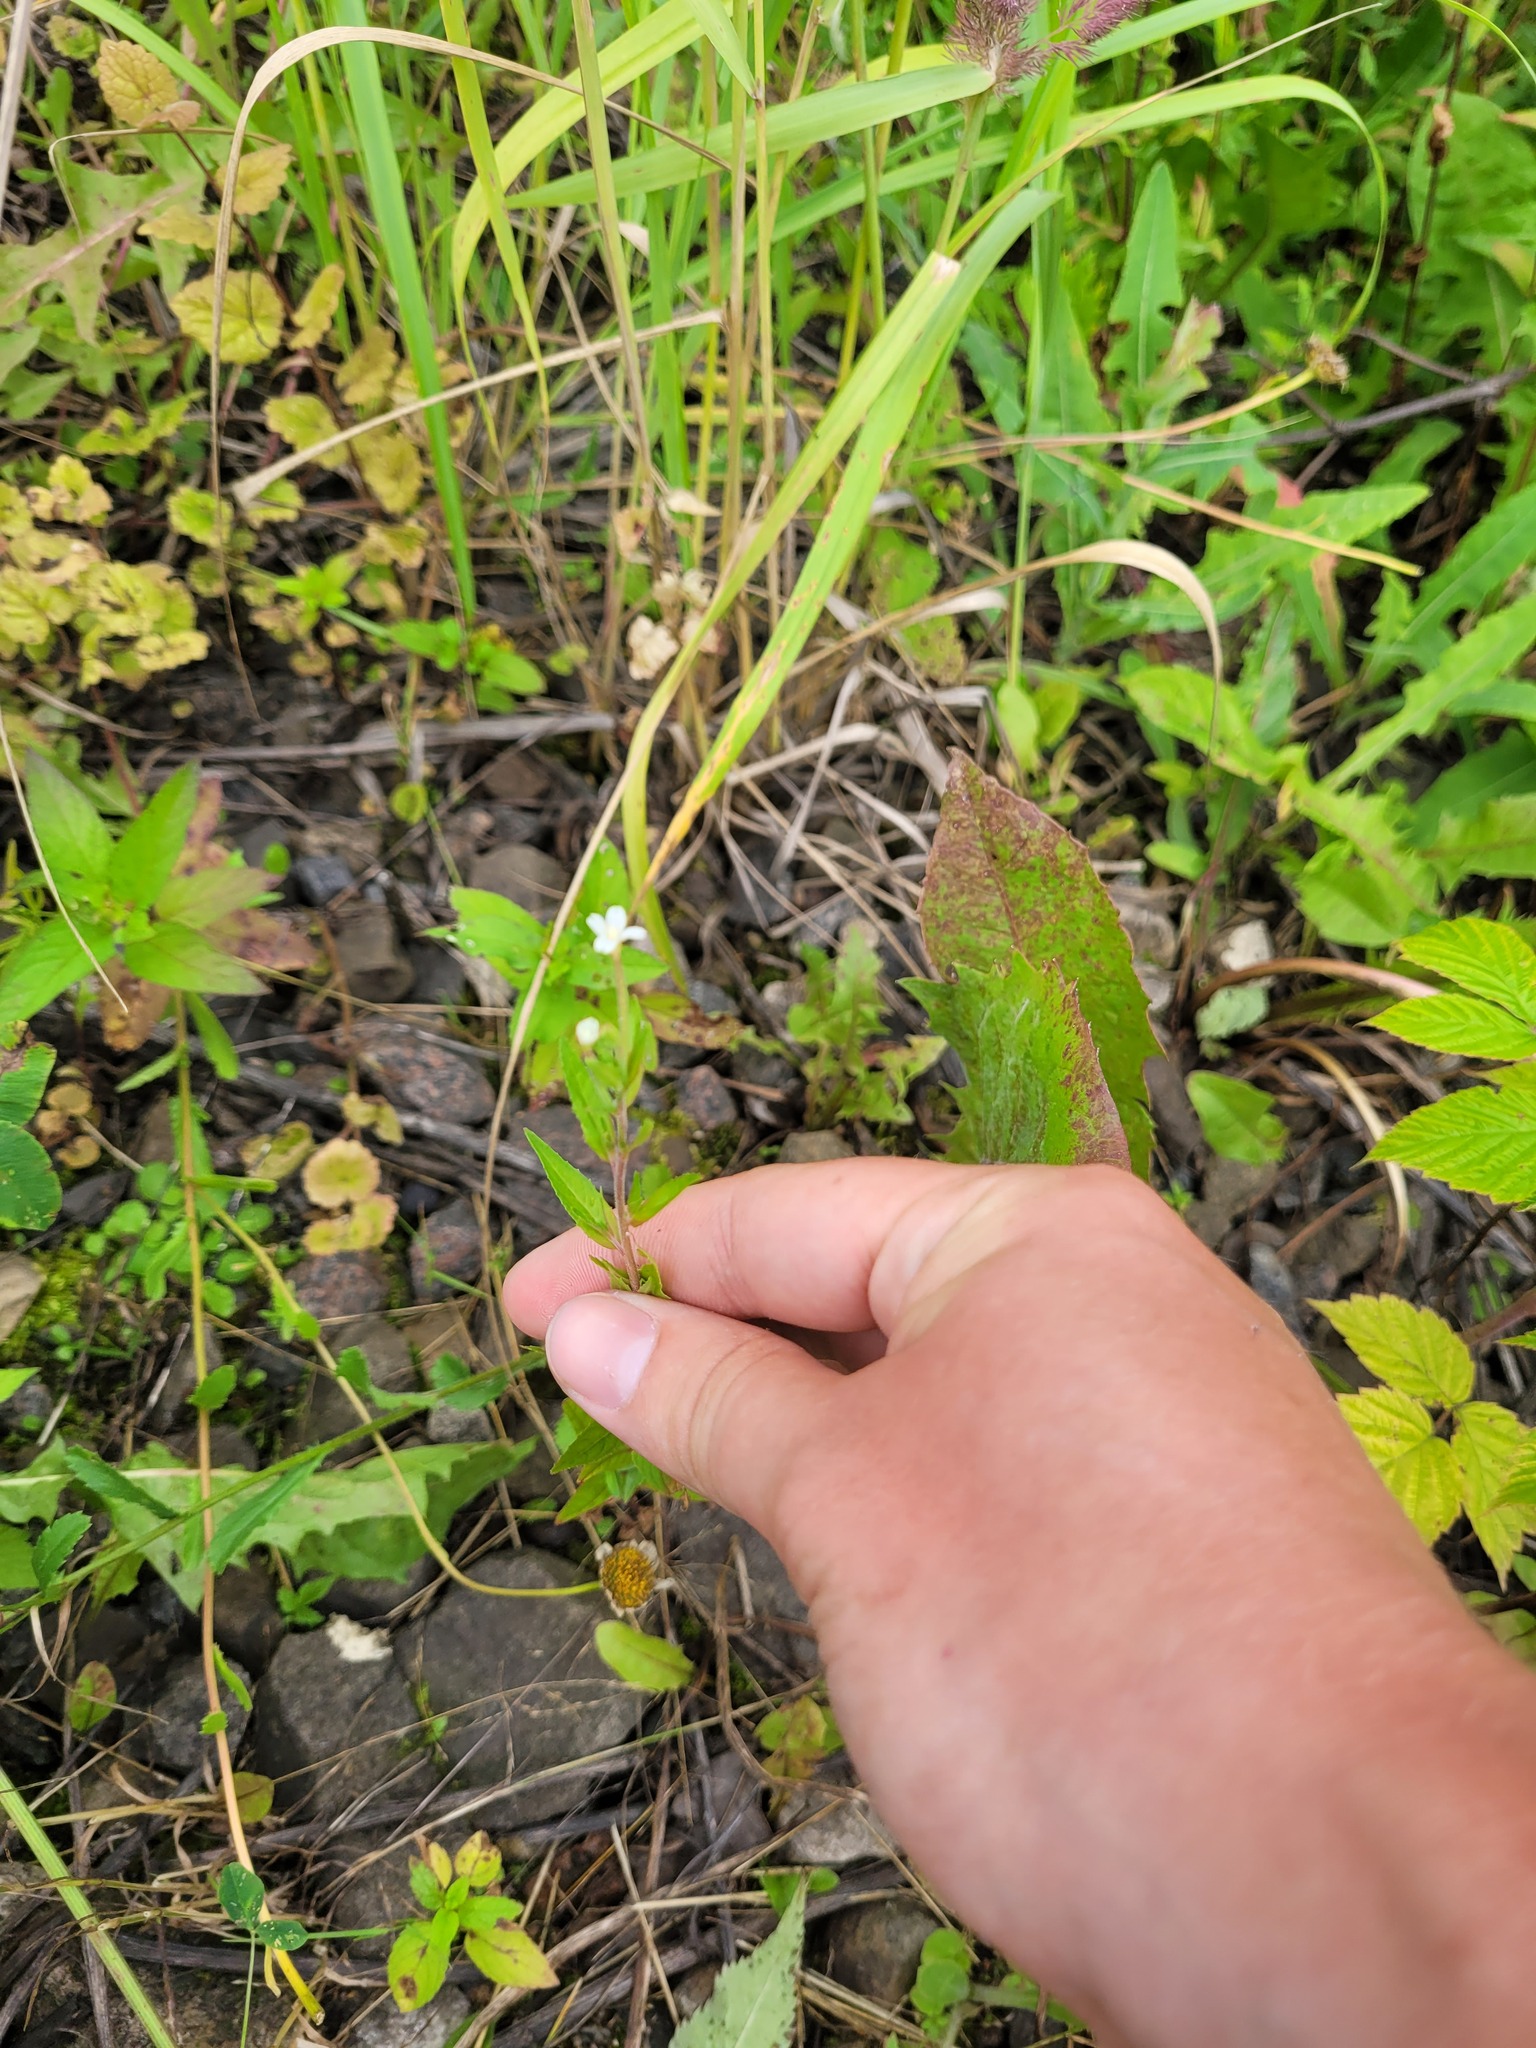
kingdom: Plantae
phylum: Tracheophyta
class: Magnoliopsida
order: Myrtales
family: Onagraceae
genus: Epilobium
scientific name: Epilobium pseudorubescens
